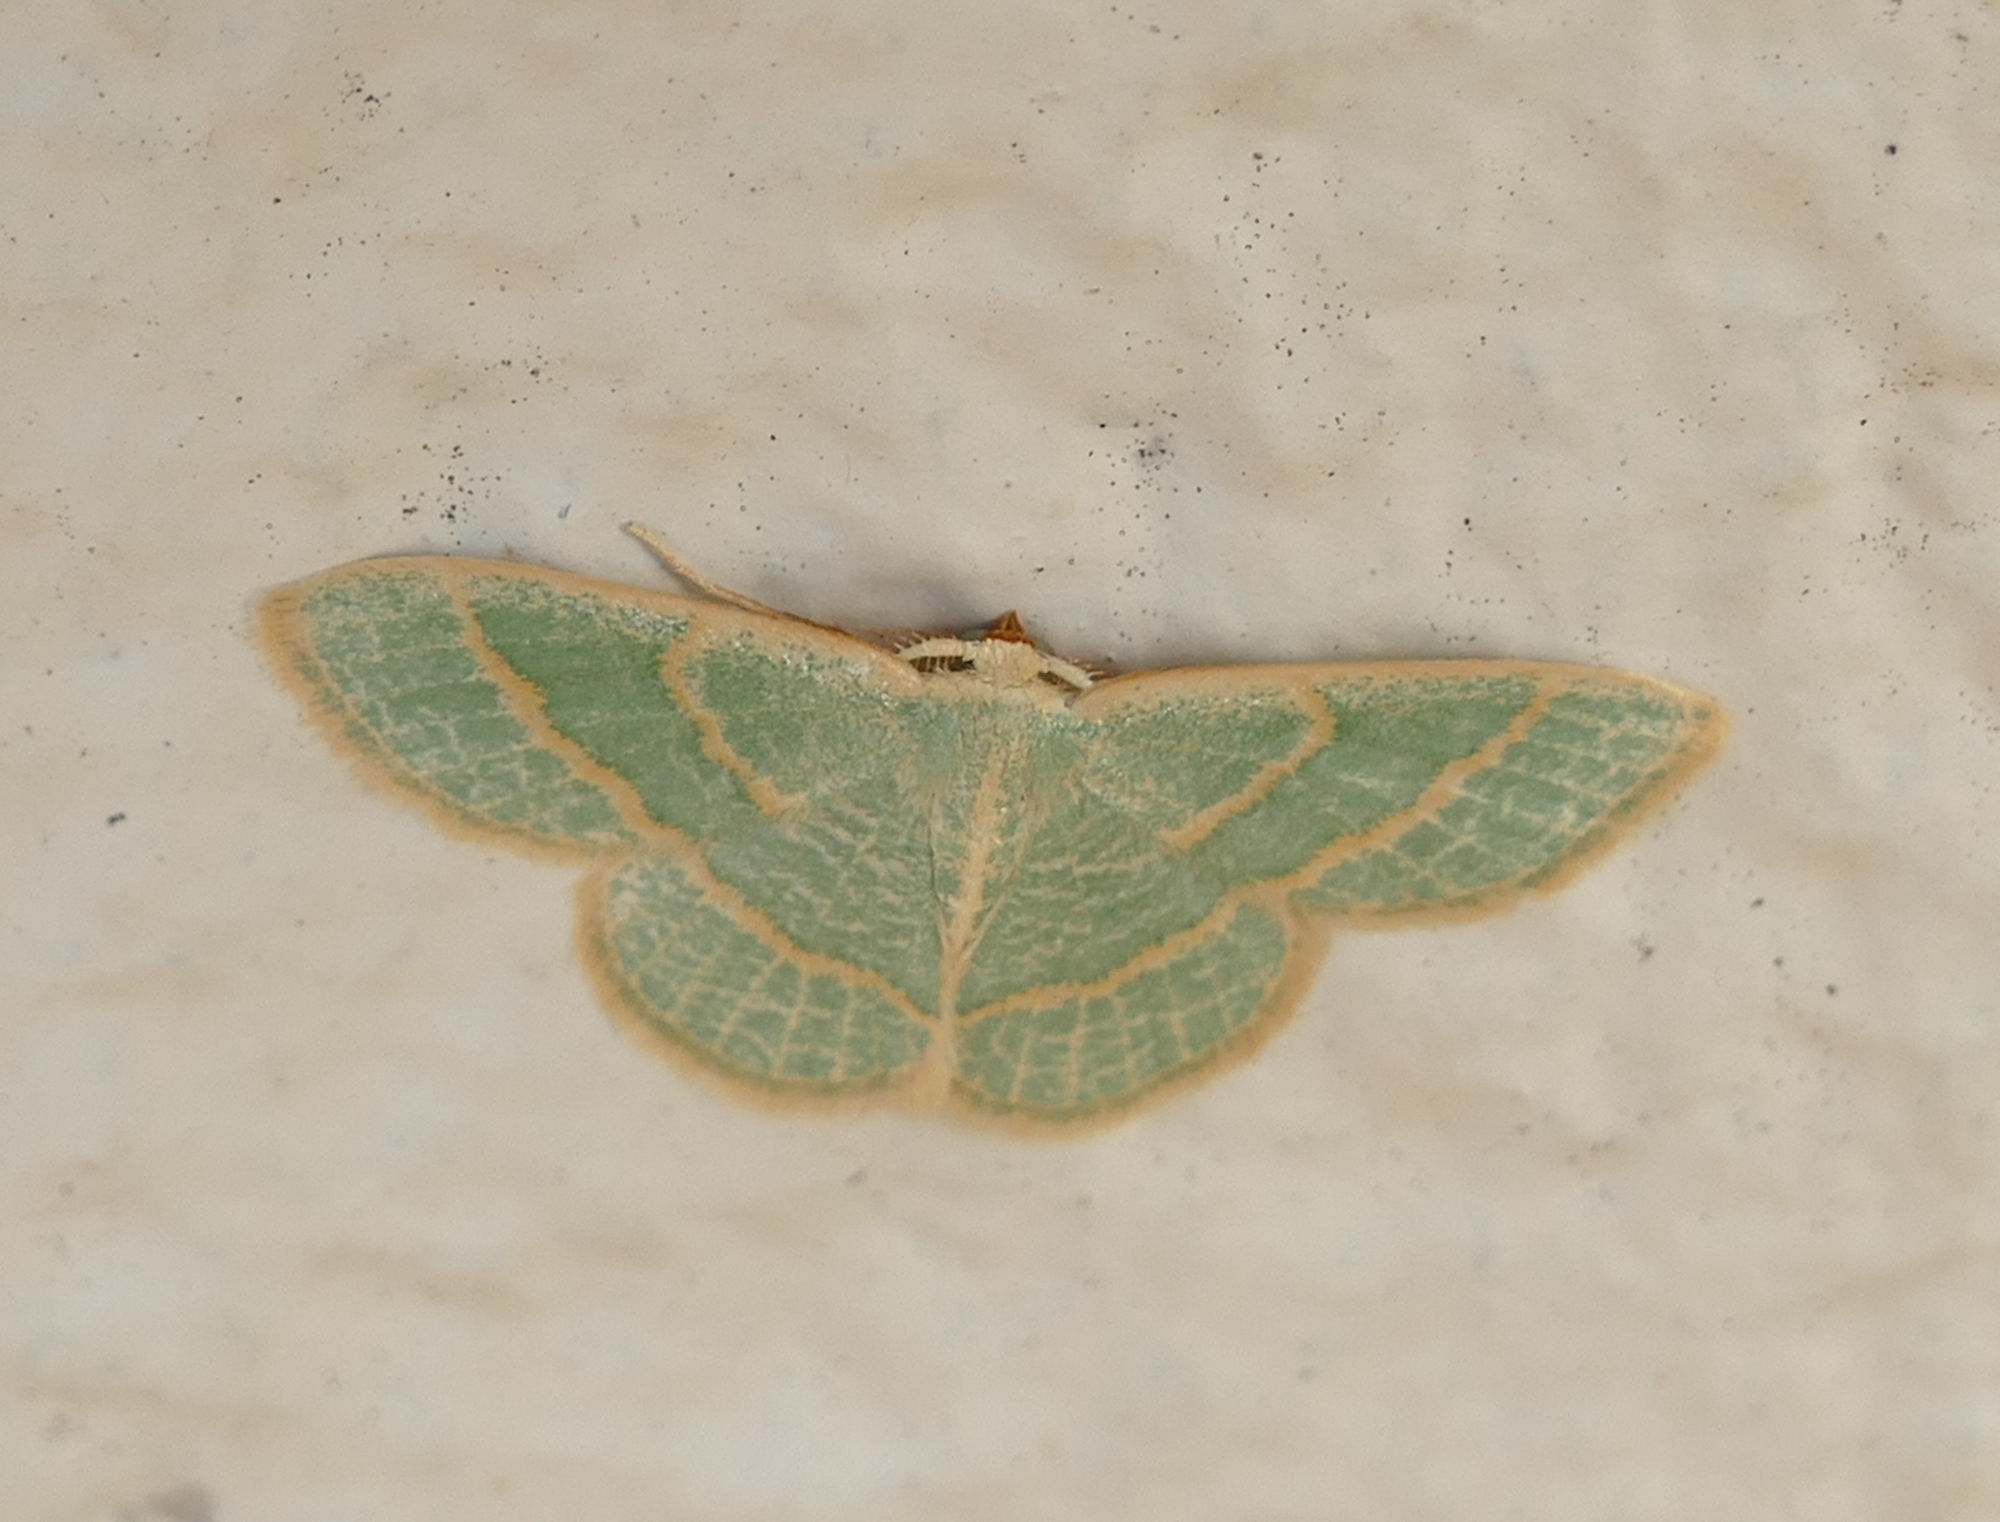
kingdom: Animalia
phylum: Arthropoda
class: Insecta
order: Lepidoptera
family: Geometridae
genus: Chlorochlamys
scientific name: Chlorochlamys chloroleucaria
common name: Blackberry looper
